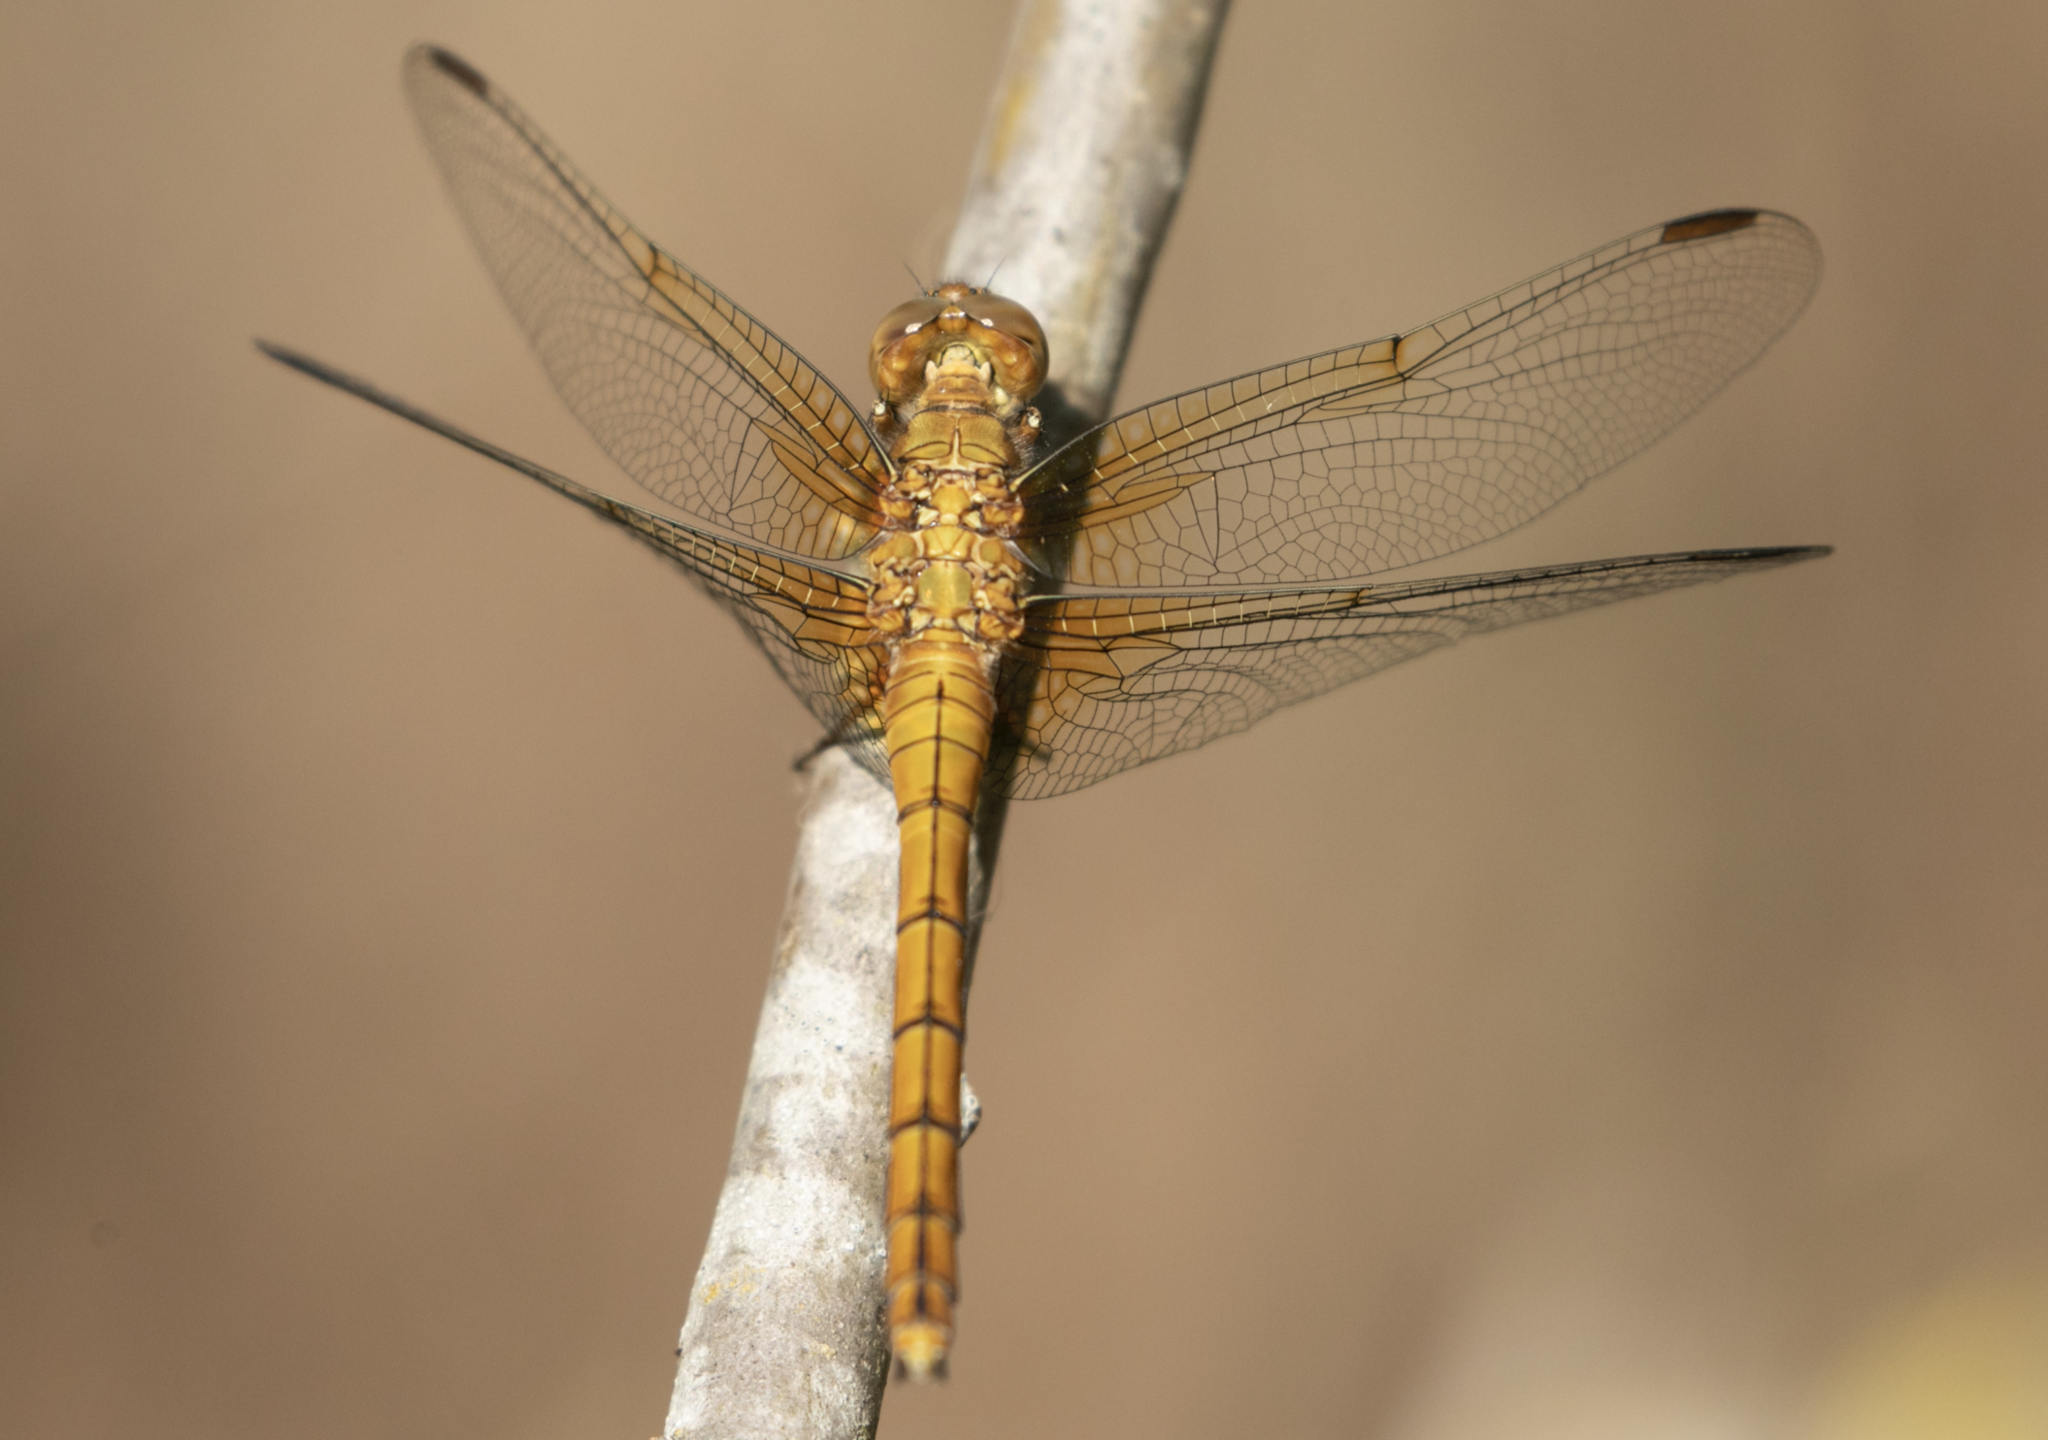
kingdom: Animalia
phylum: Arthropoda
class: Insecta
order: Odonata
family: Libellulidae
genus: Orthetrum
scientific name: Orthetrum coerulescens
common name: Keeled skimmer
